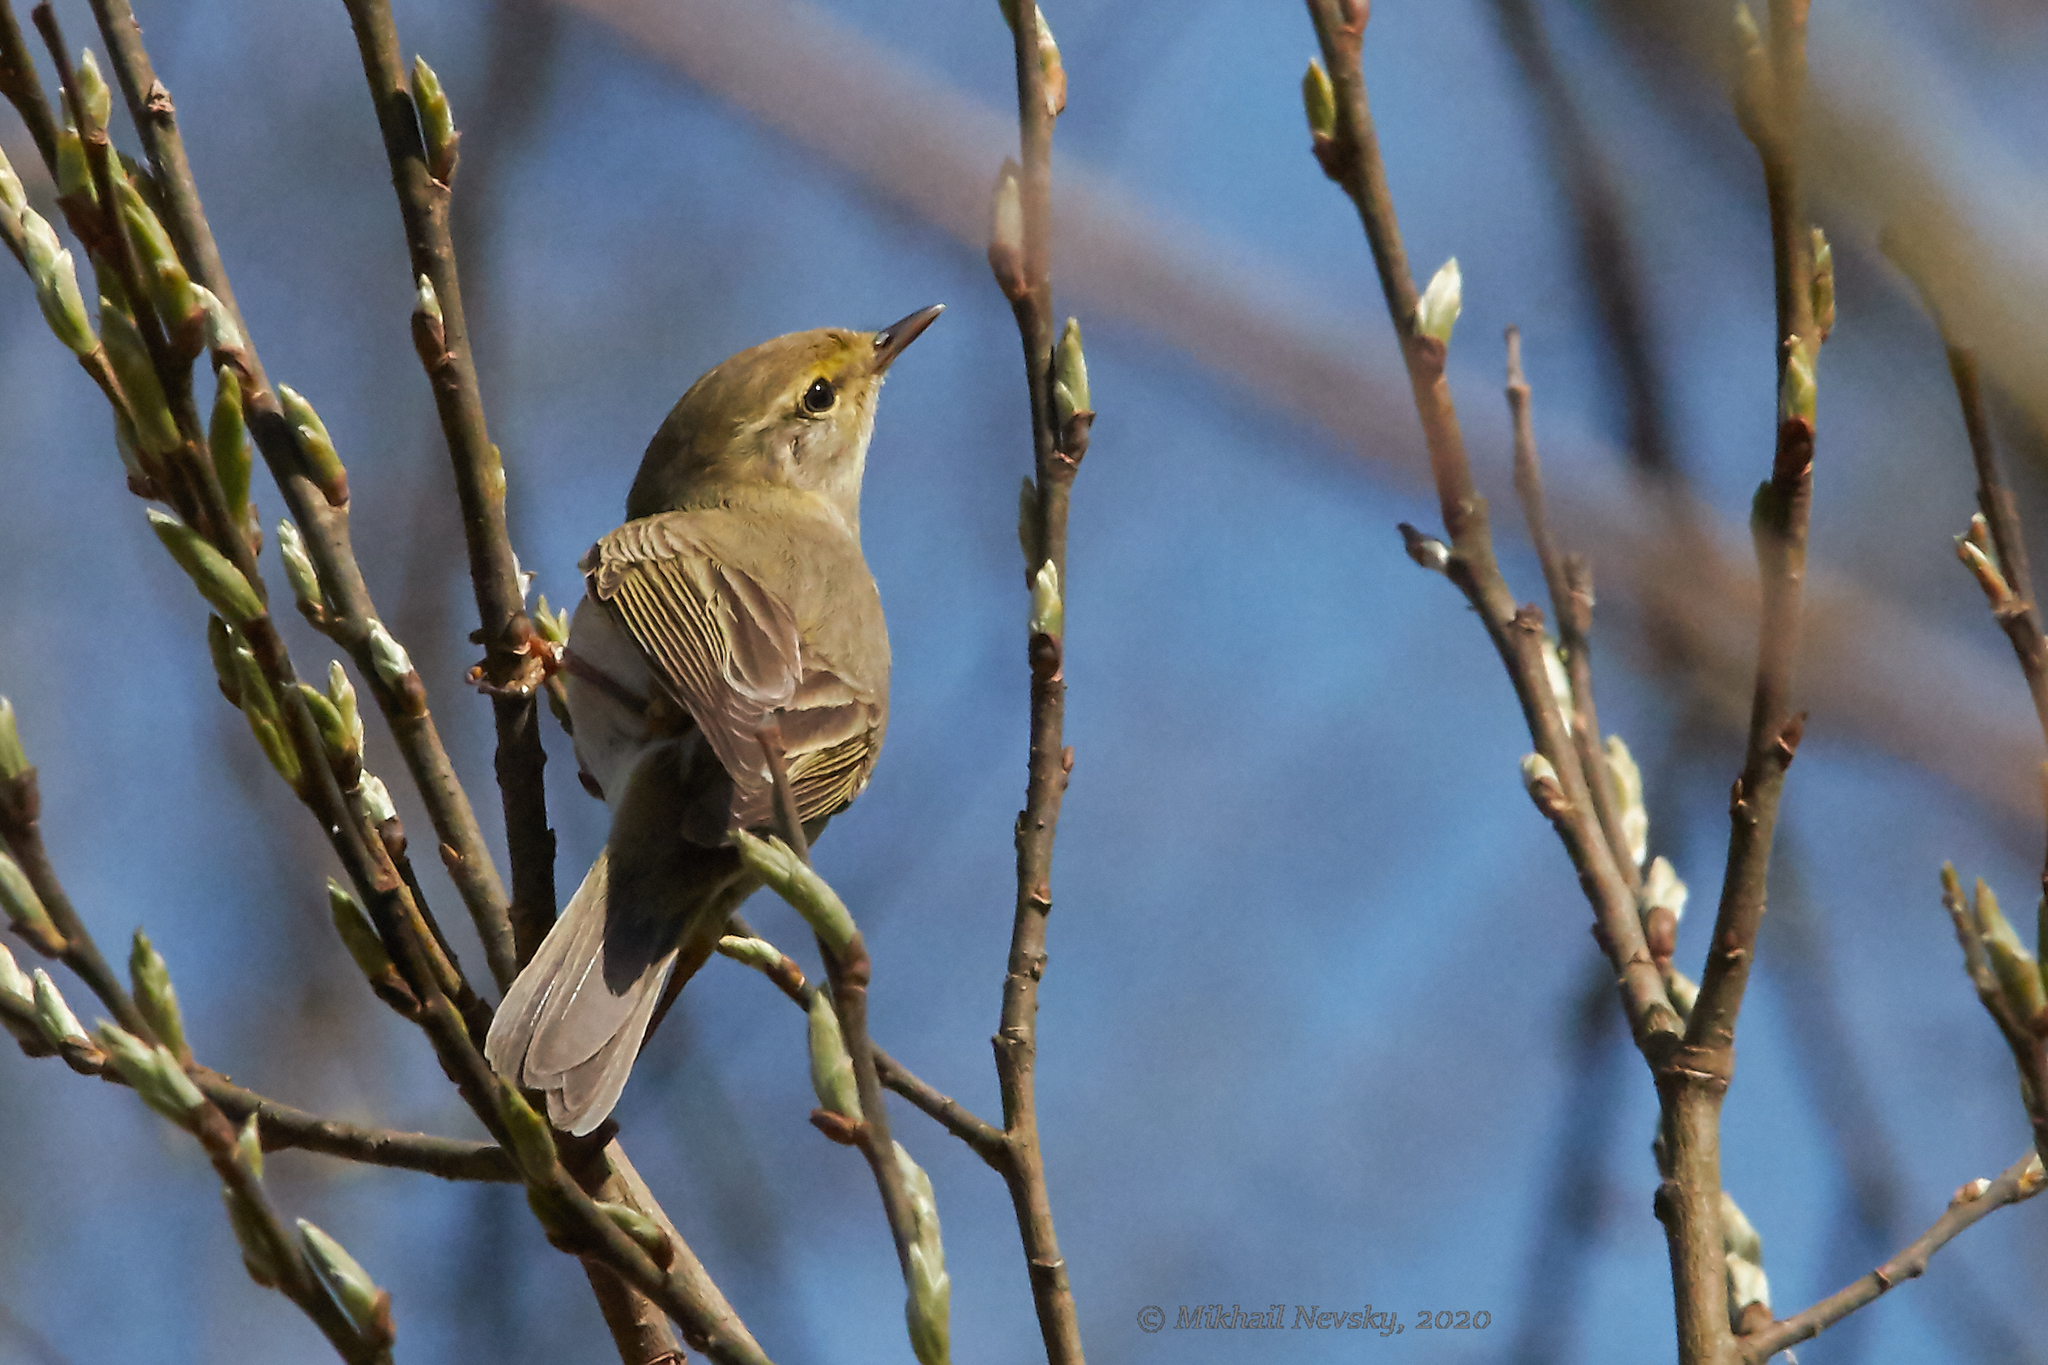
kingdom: Animalia
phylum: Chordata
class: Aves
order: Passeriformes
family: Phylloscopidae
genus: Phylloscopus
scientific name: Phylloscopus trochilus
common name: Willow warbler
